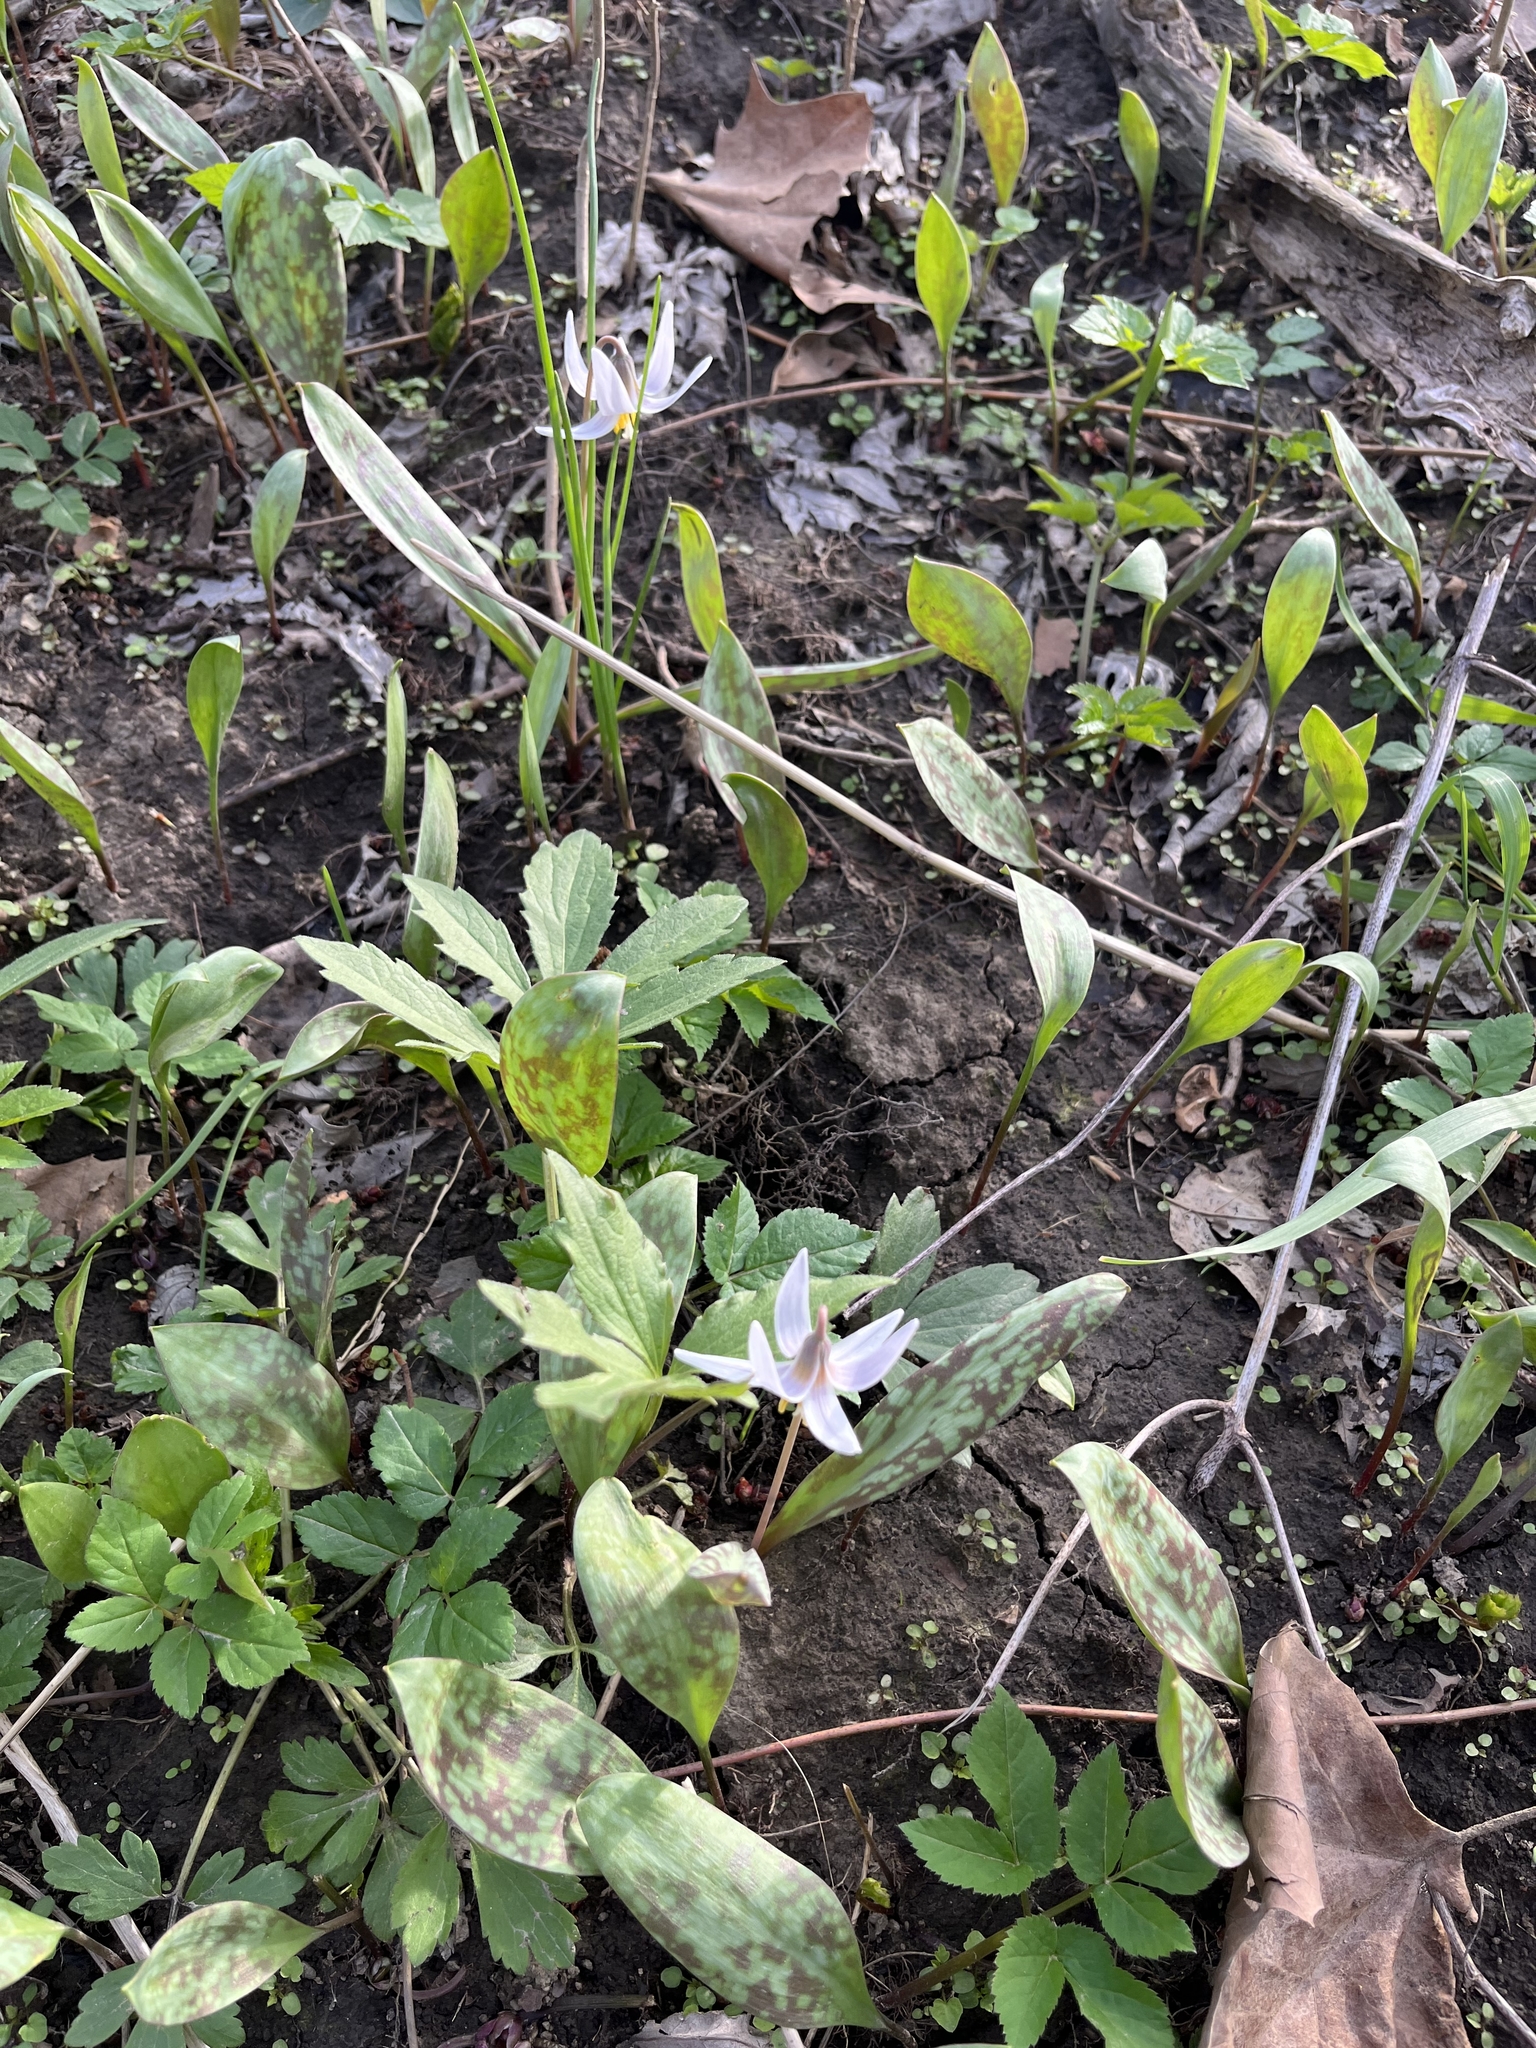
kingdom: Plantae
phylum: Tracheophyta
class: Liliopsida
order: Liliales
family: Liliaceae
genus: Erythronium
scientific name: Erythronium albidum
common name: White trout-lily
